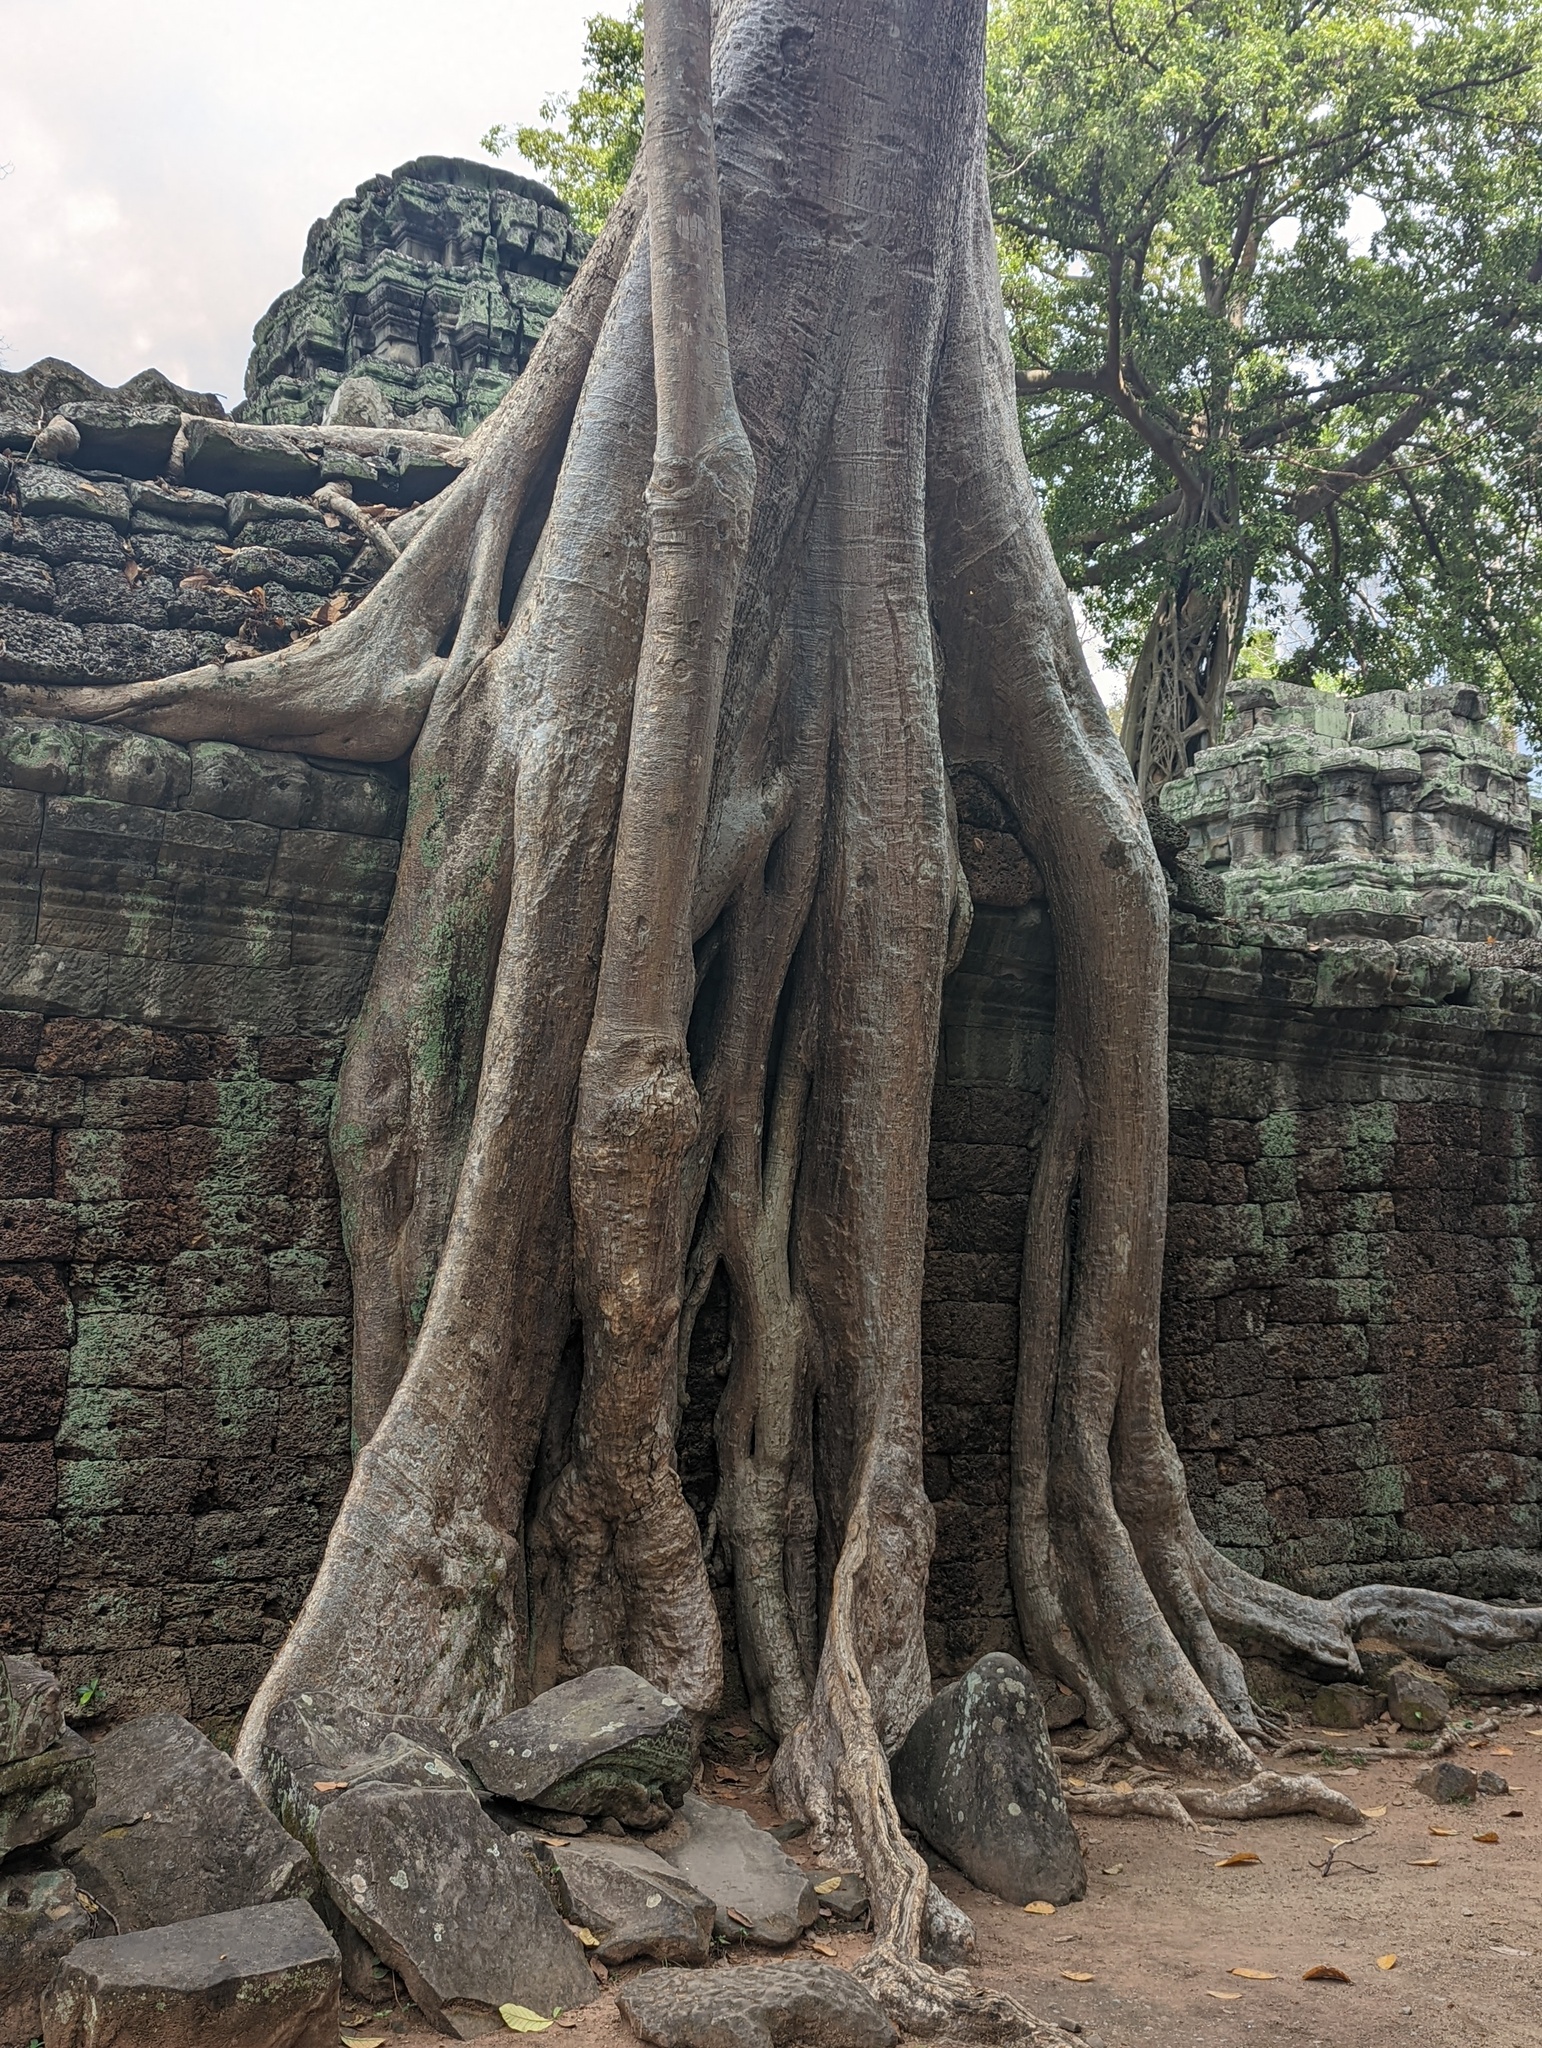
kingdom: Plantae
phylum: Tracheophyta
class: Magnoliopsida
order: Cucurbitales
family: Tetramelaceae
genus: Tetrameles
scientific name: Tetrameles nudiflora
